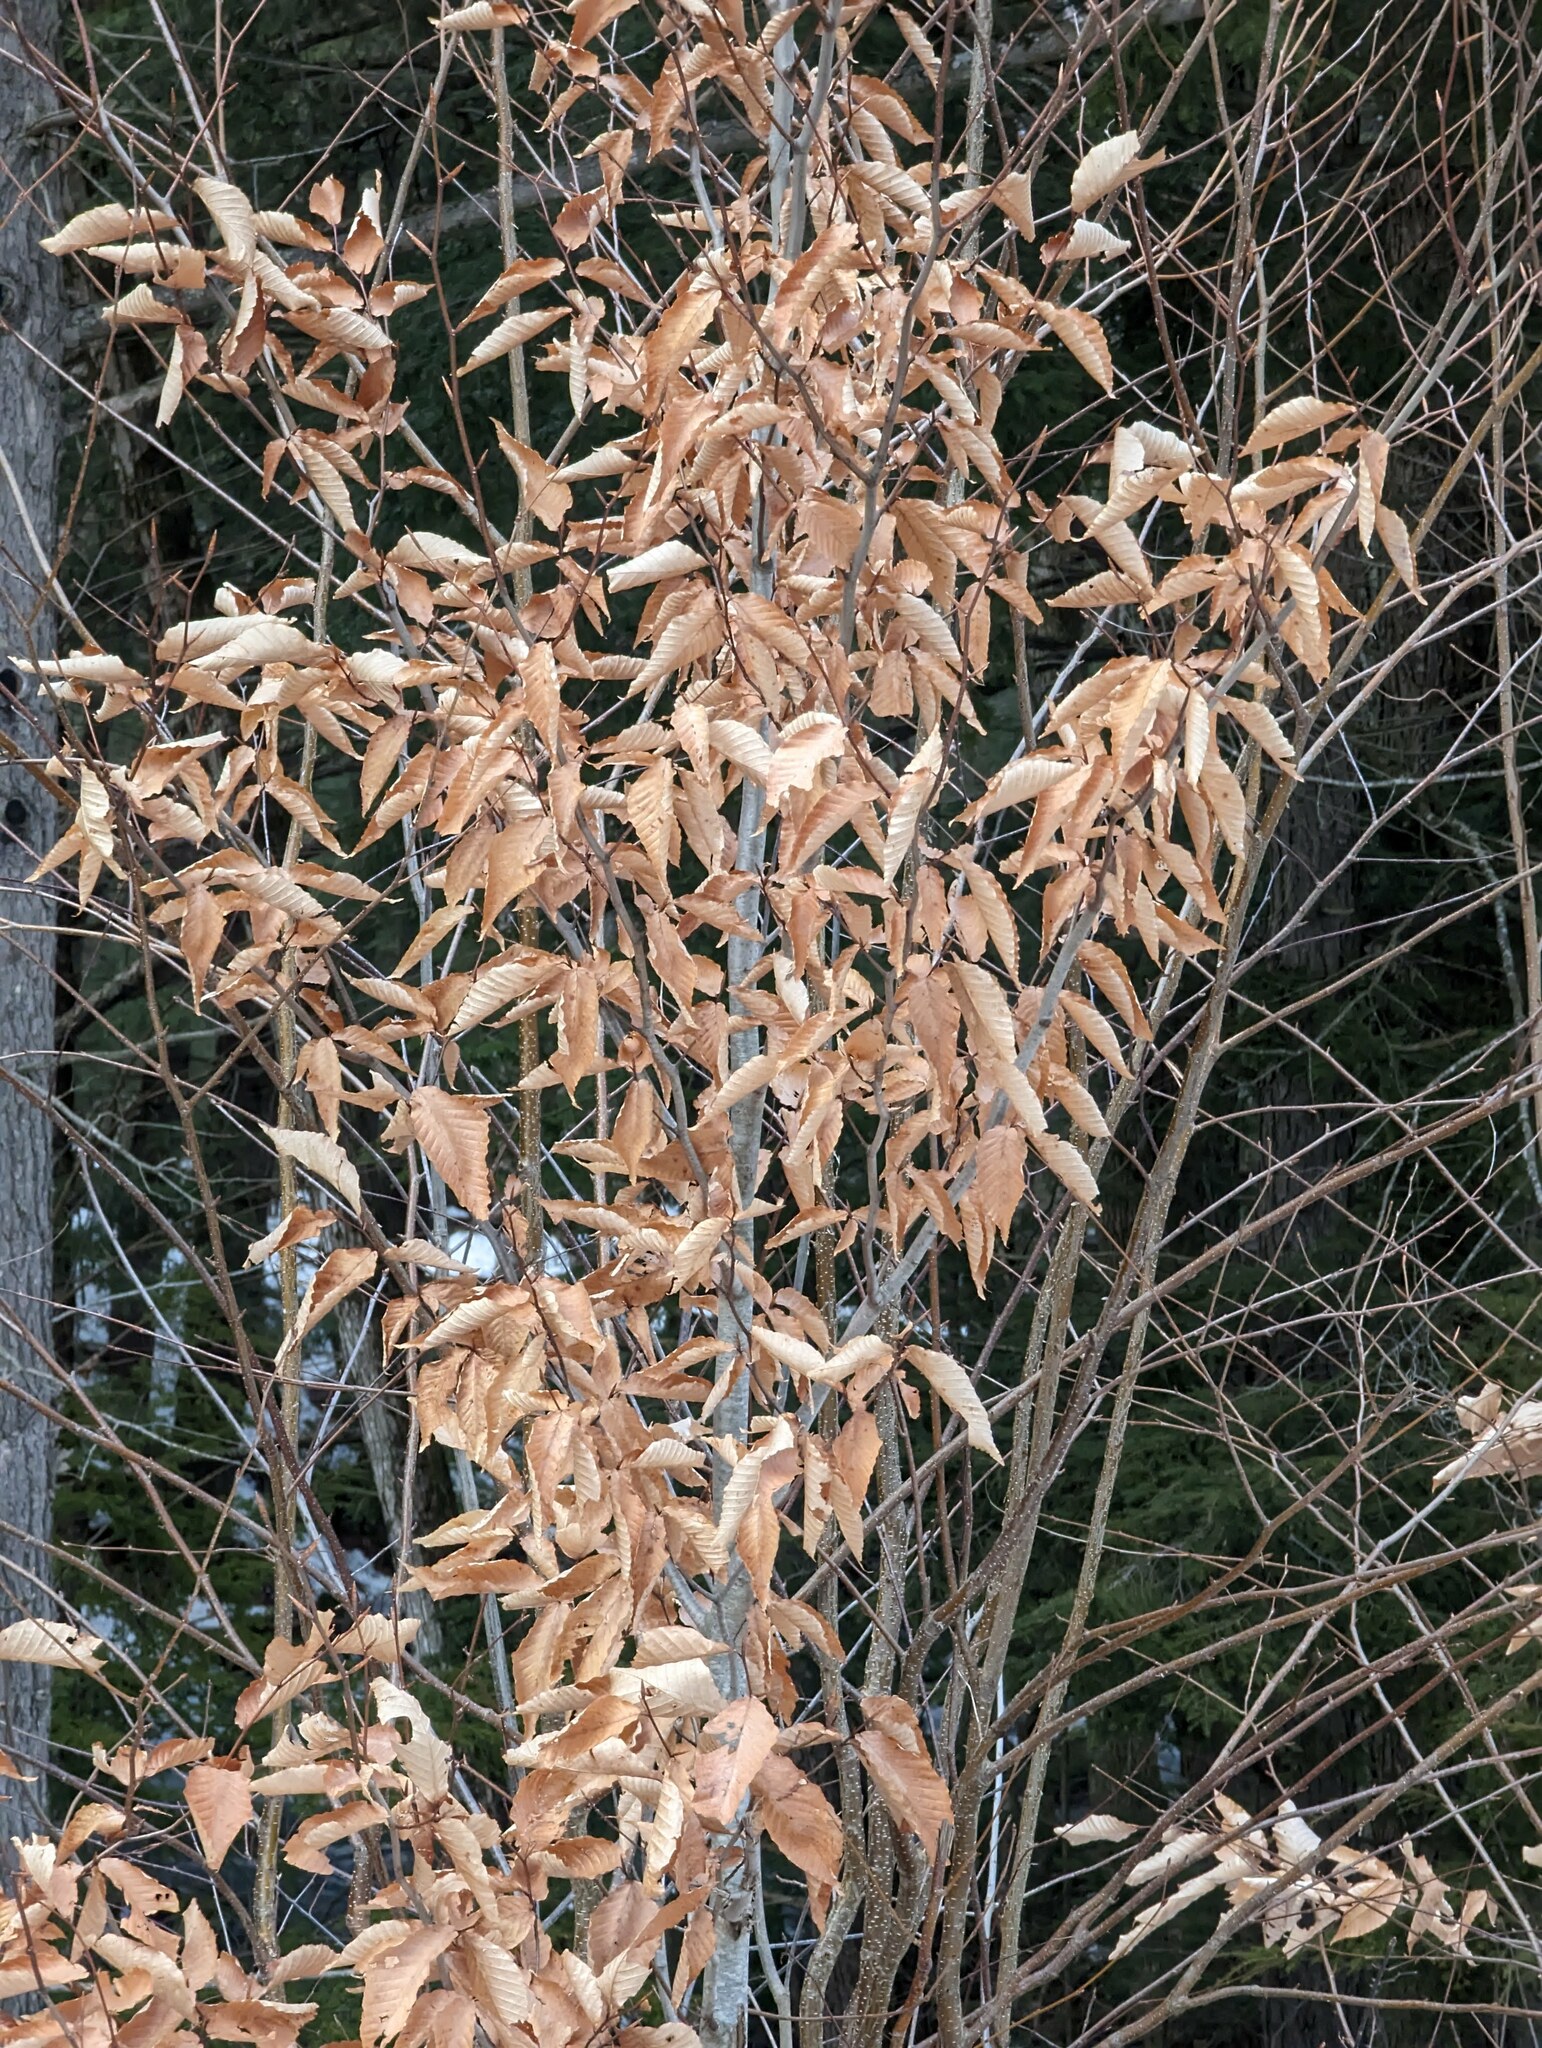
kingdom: Plantae
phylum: Tracheophyta
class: Magnoliopsida
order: Fagales
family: Fagaceae
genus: Fagus
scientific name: Fagus grandifolia
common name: American beech
